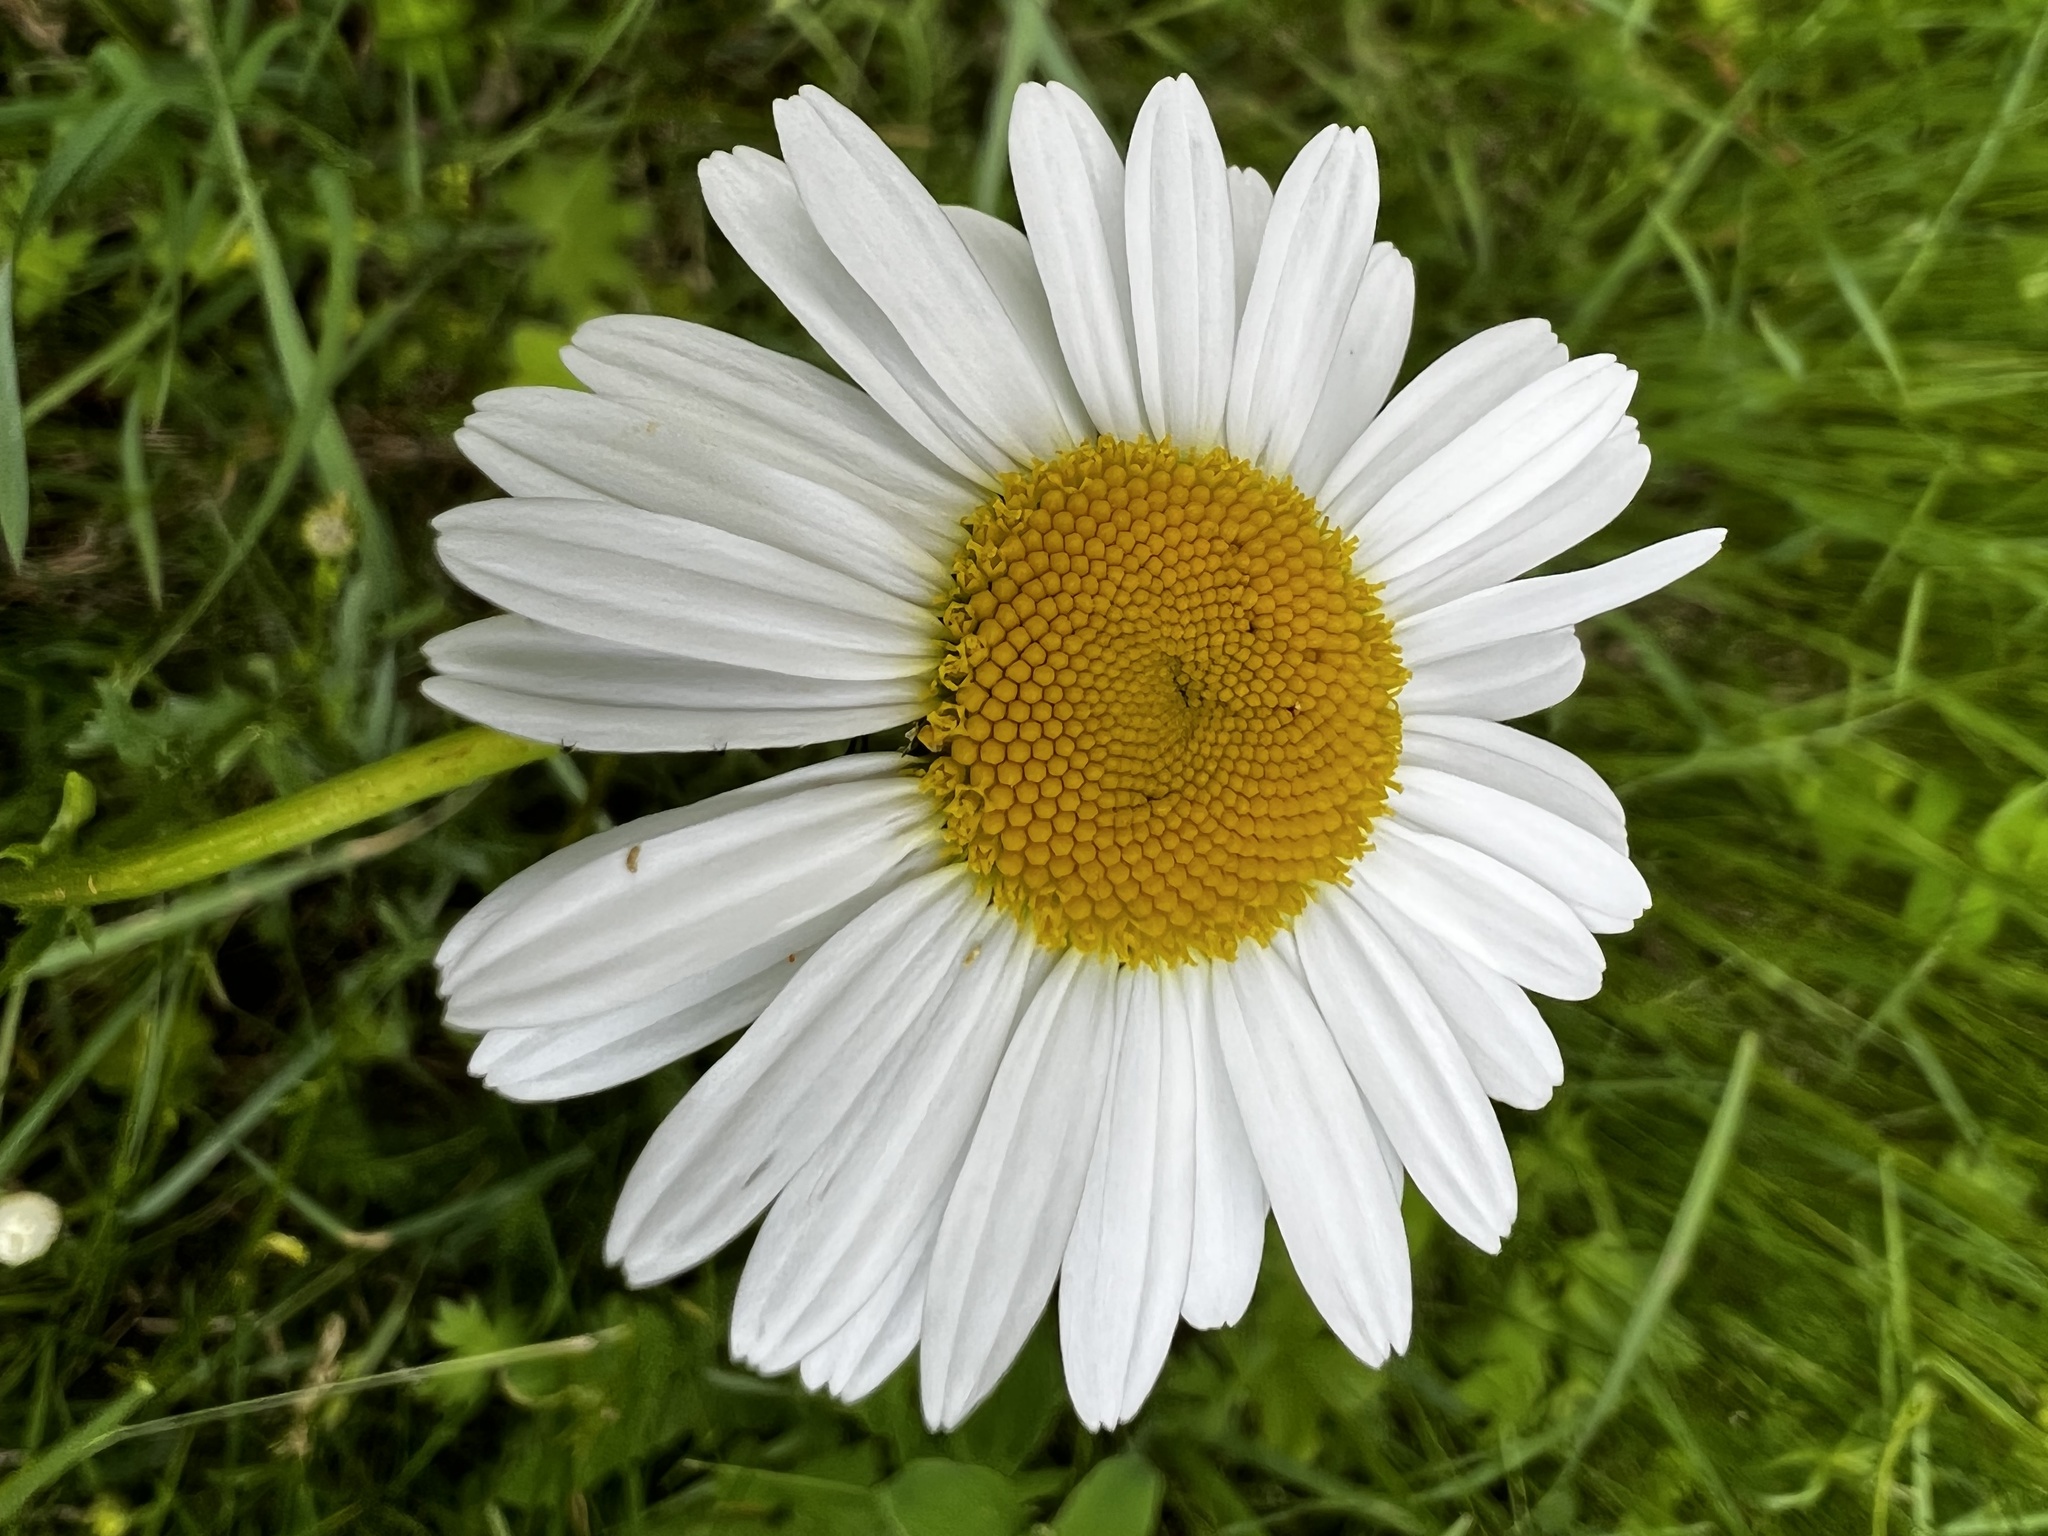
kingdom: Plantae
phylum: Tracheophyta
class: Magnoliopsida
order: Asterales
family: Asteraceae
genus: Leucanthemum
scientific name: Leucanthemum vulgare
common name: Oxeye daisy
